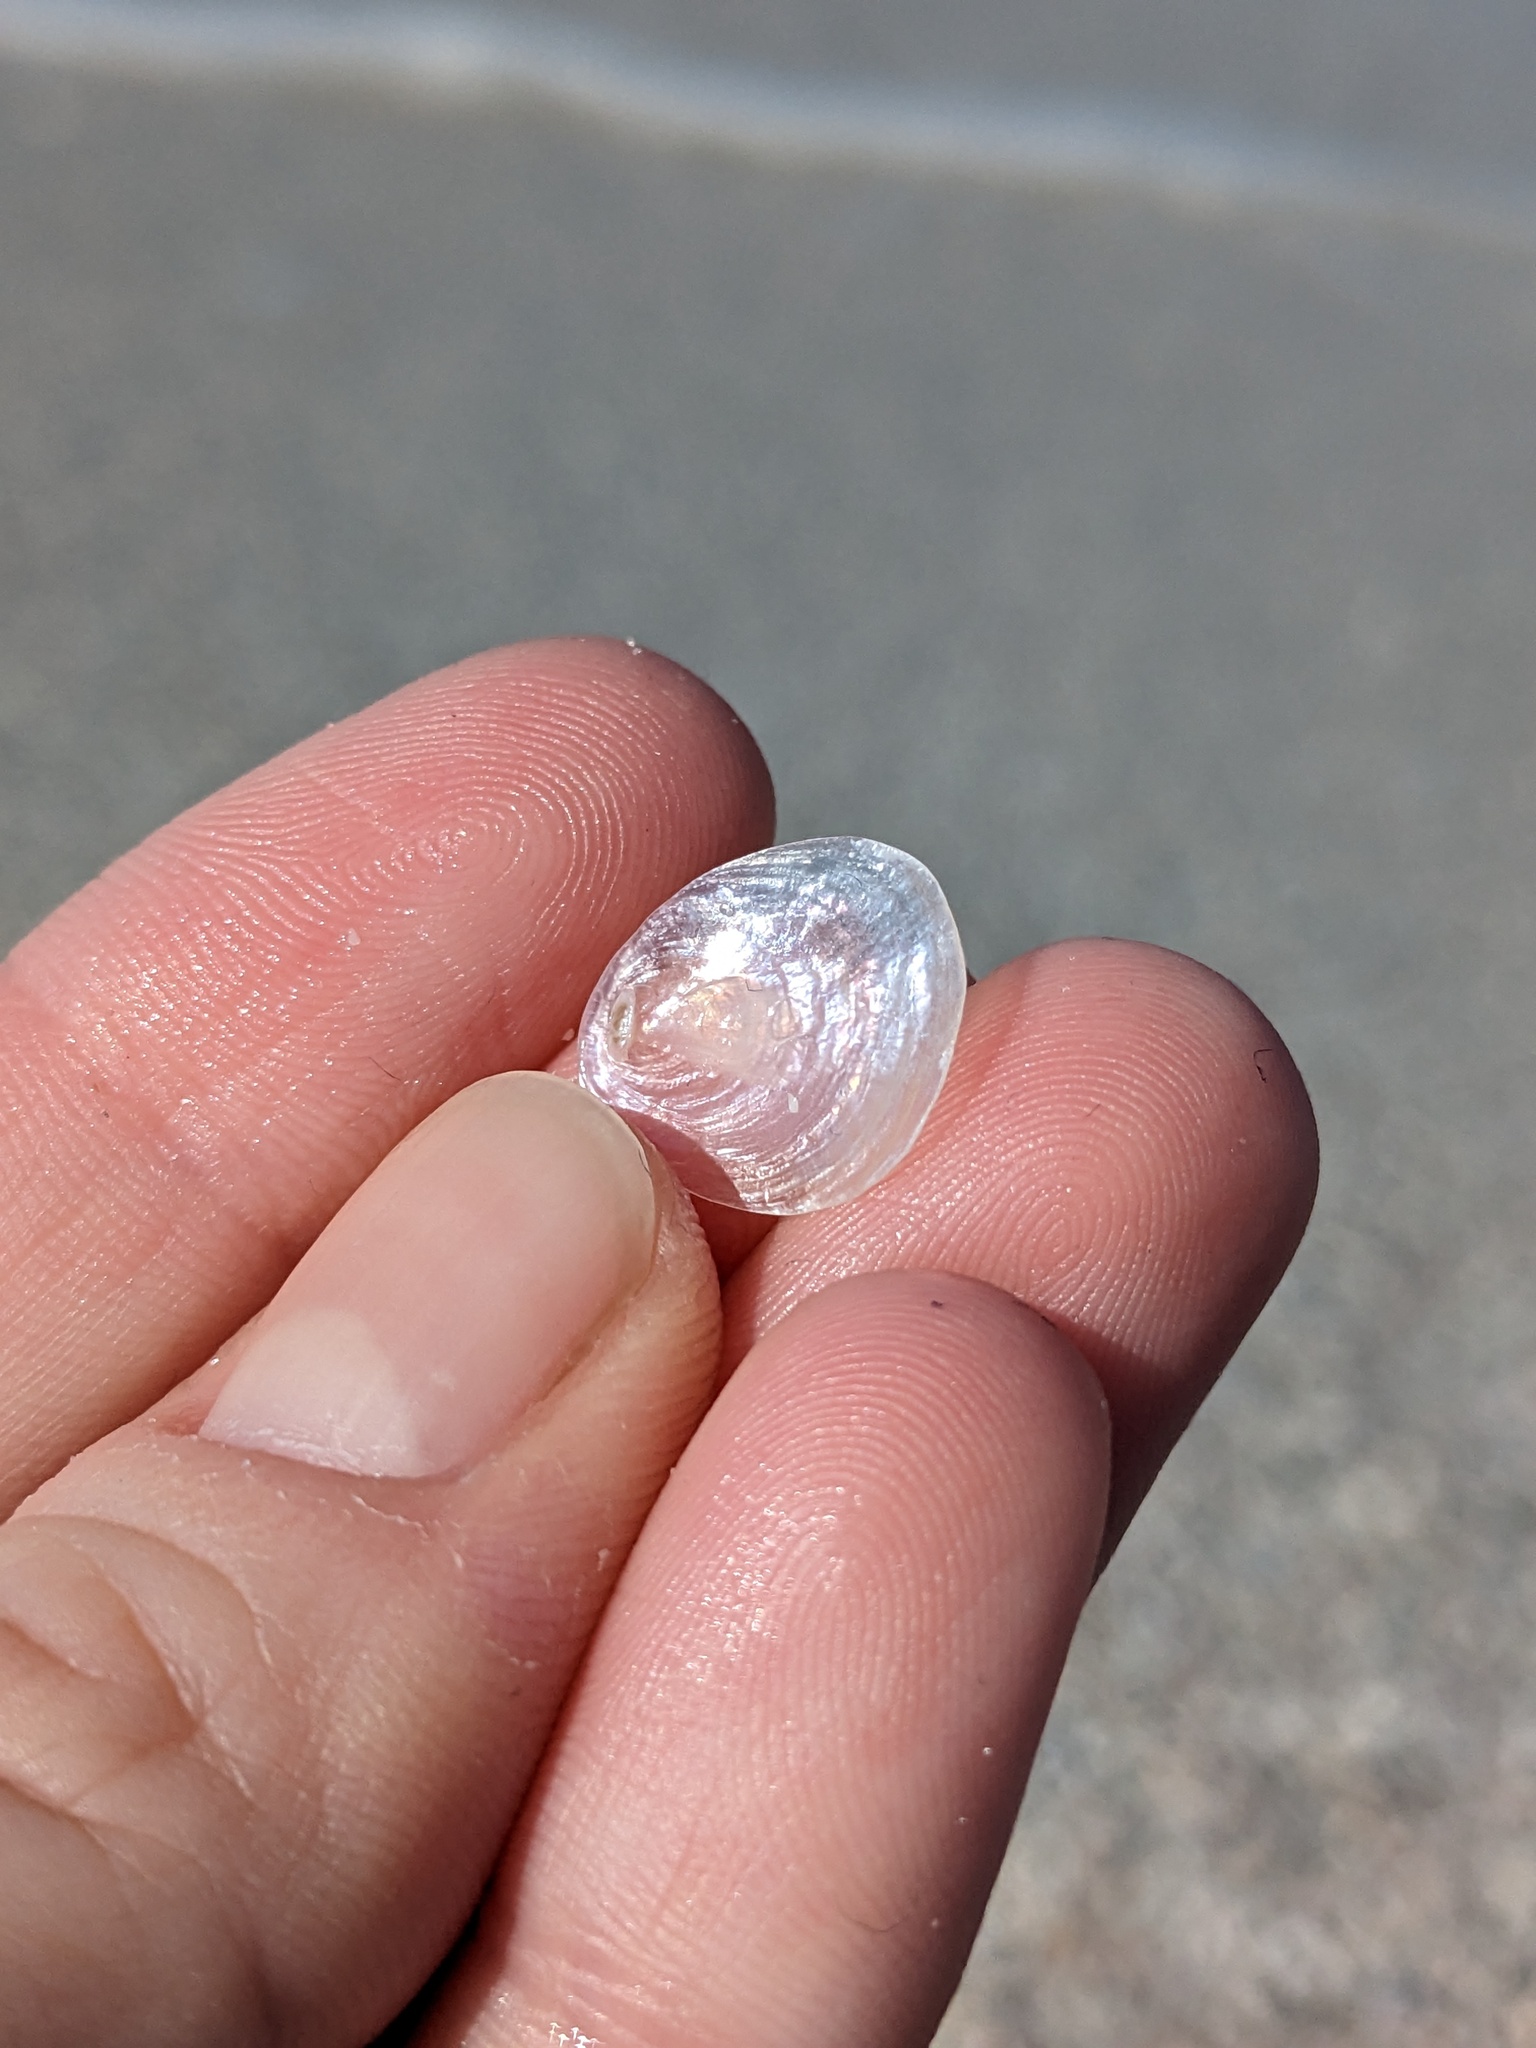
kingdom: Animalia
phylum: Mollusca
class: Bivalvia
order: Pectinida
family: Anomiidae
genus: Anomia
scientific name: Anomia simplex
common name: Common jingle shell
